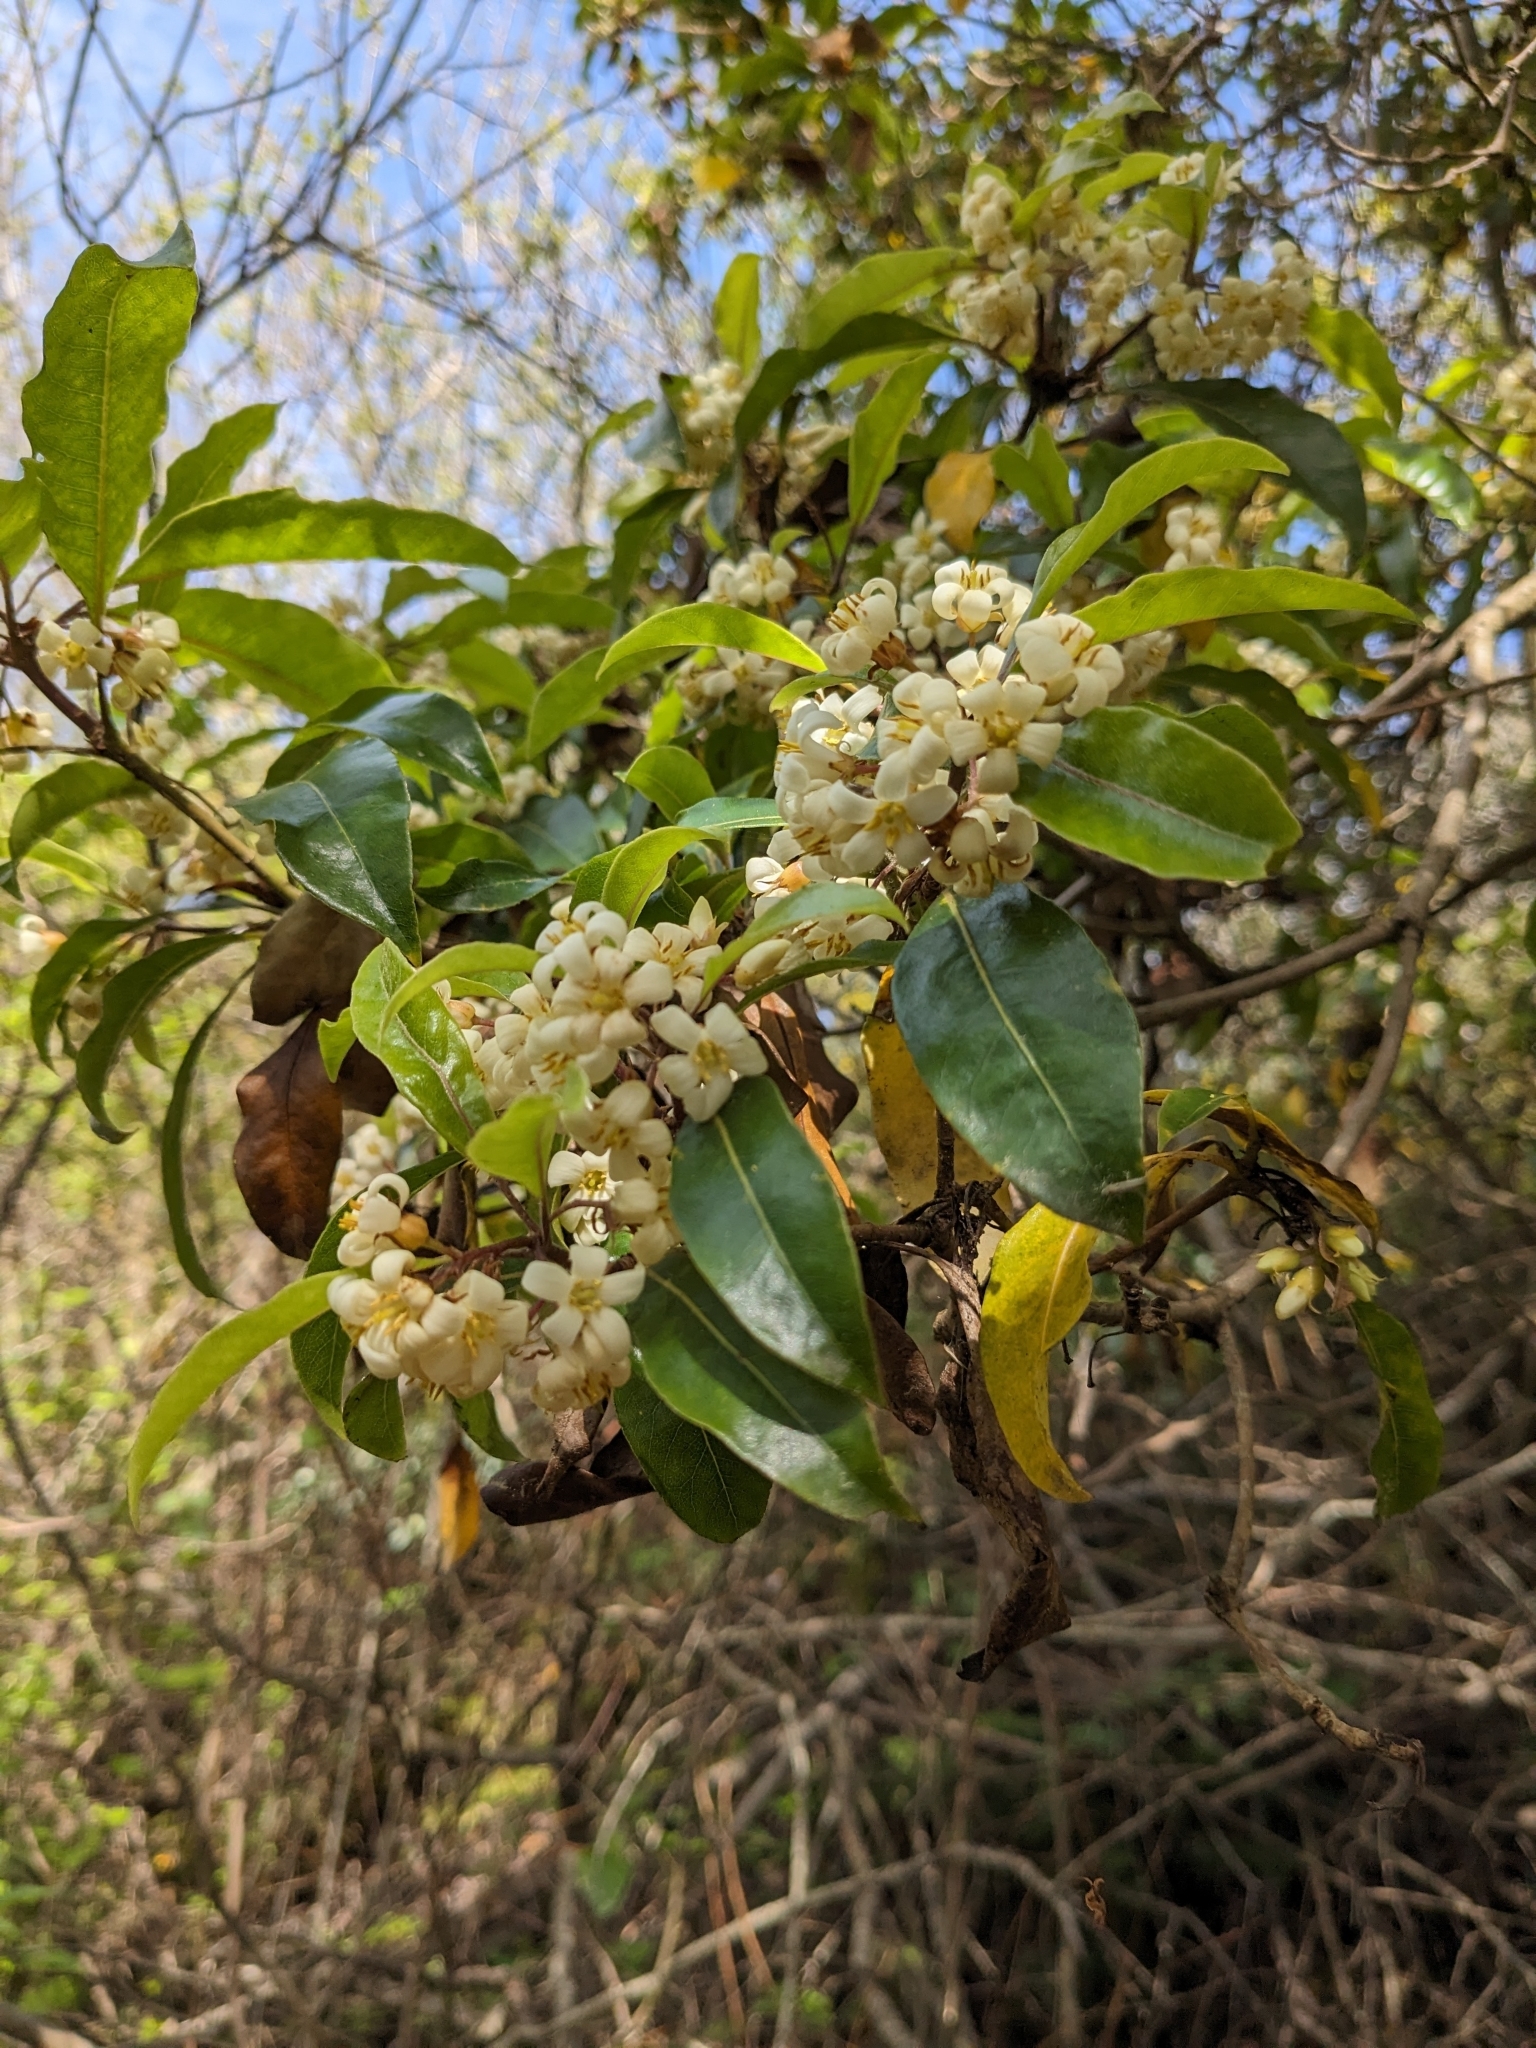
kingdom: Plantae
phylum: Tracheophyta
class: Magnoliopsida
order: Apiales
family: Pittosporaceae
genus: Pittosporum
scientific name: Pittosporum undulatum
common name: Australian cheesewood
